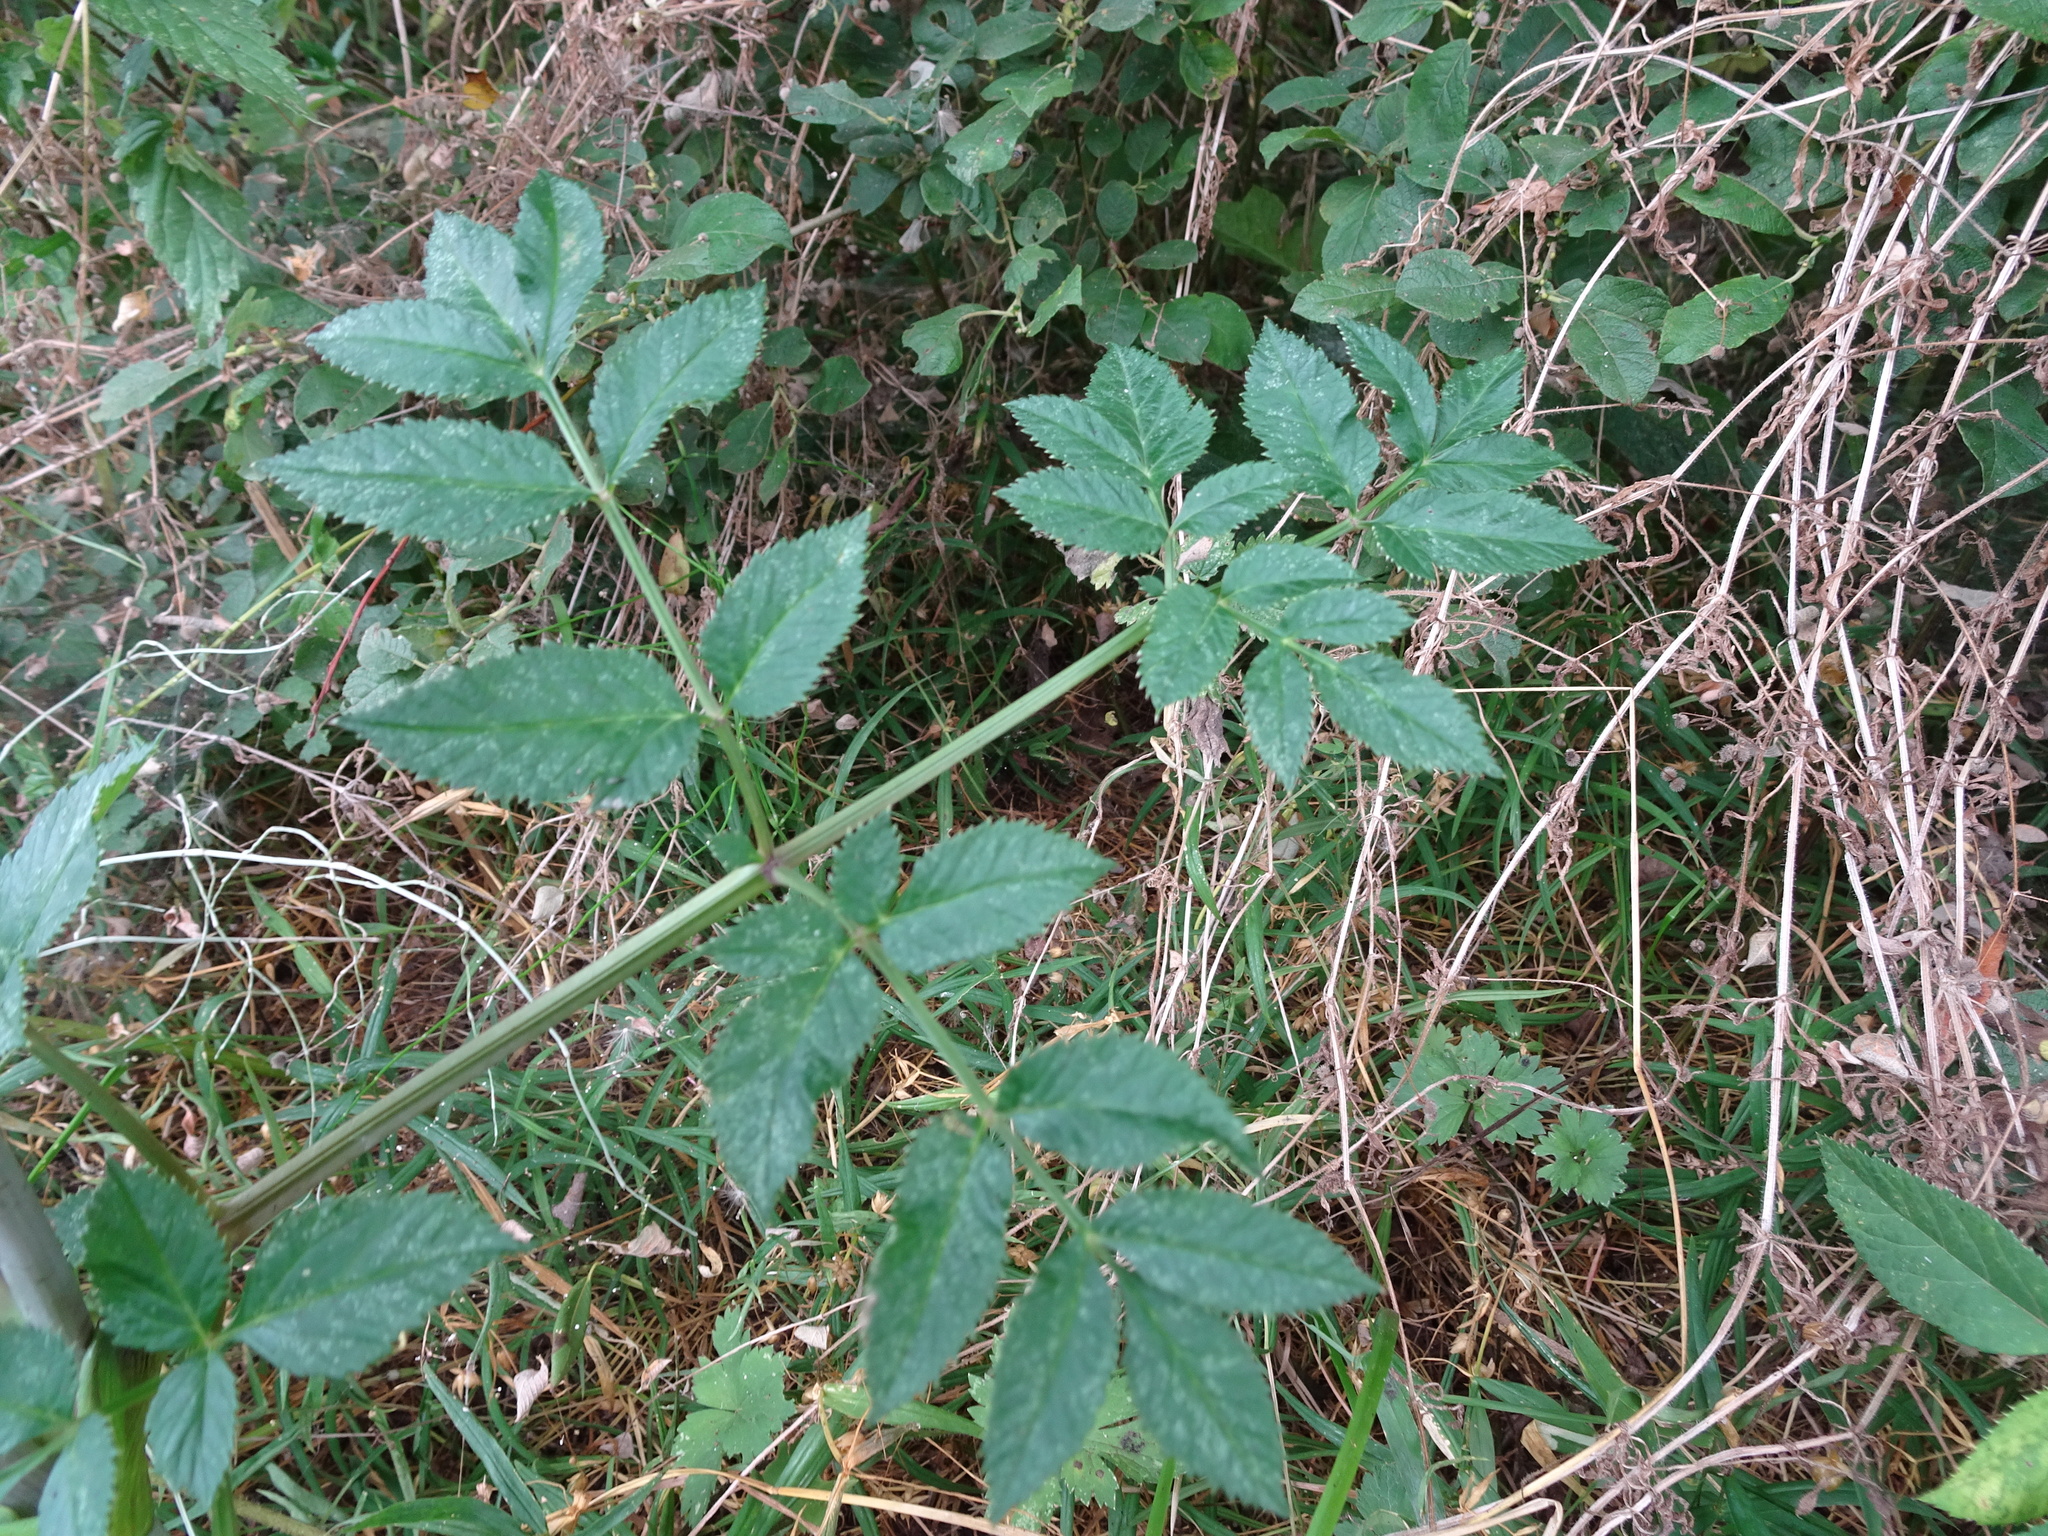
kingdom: Plantae
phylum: Tracheophyta
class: Magnoliopsida
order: Apiales
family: Apiaceae
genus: Angelica
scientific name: Angelica sylvestris
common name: Wild angelica
